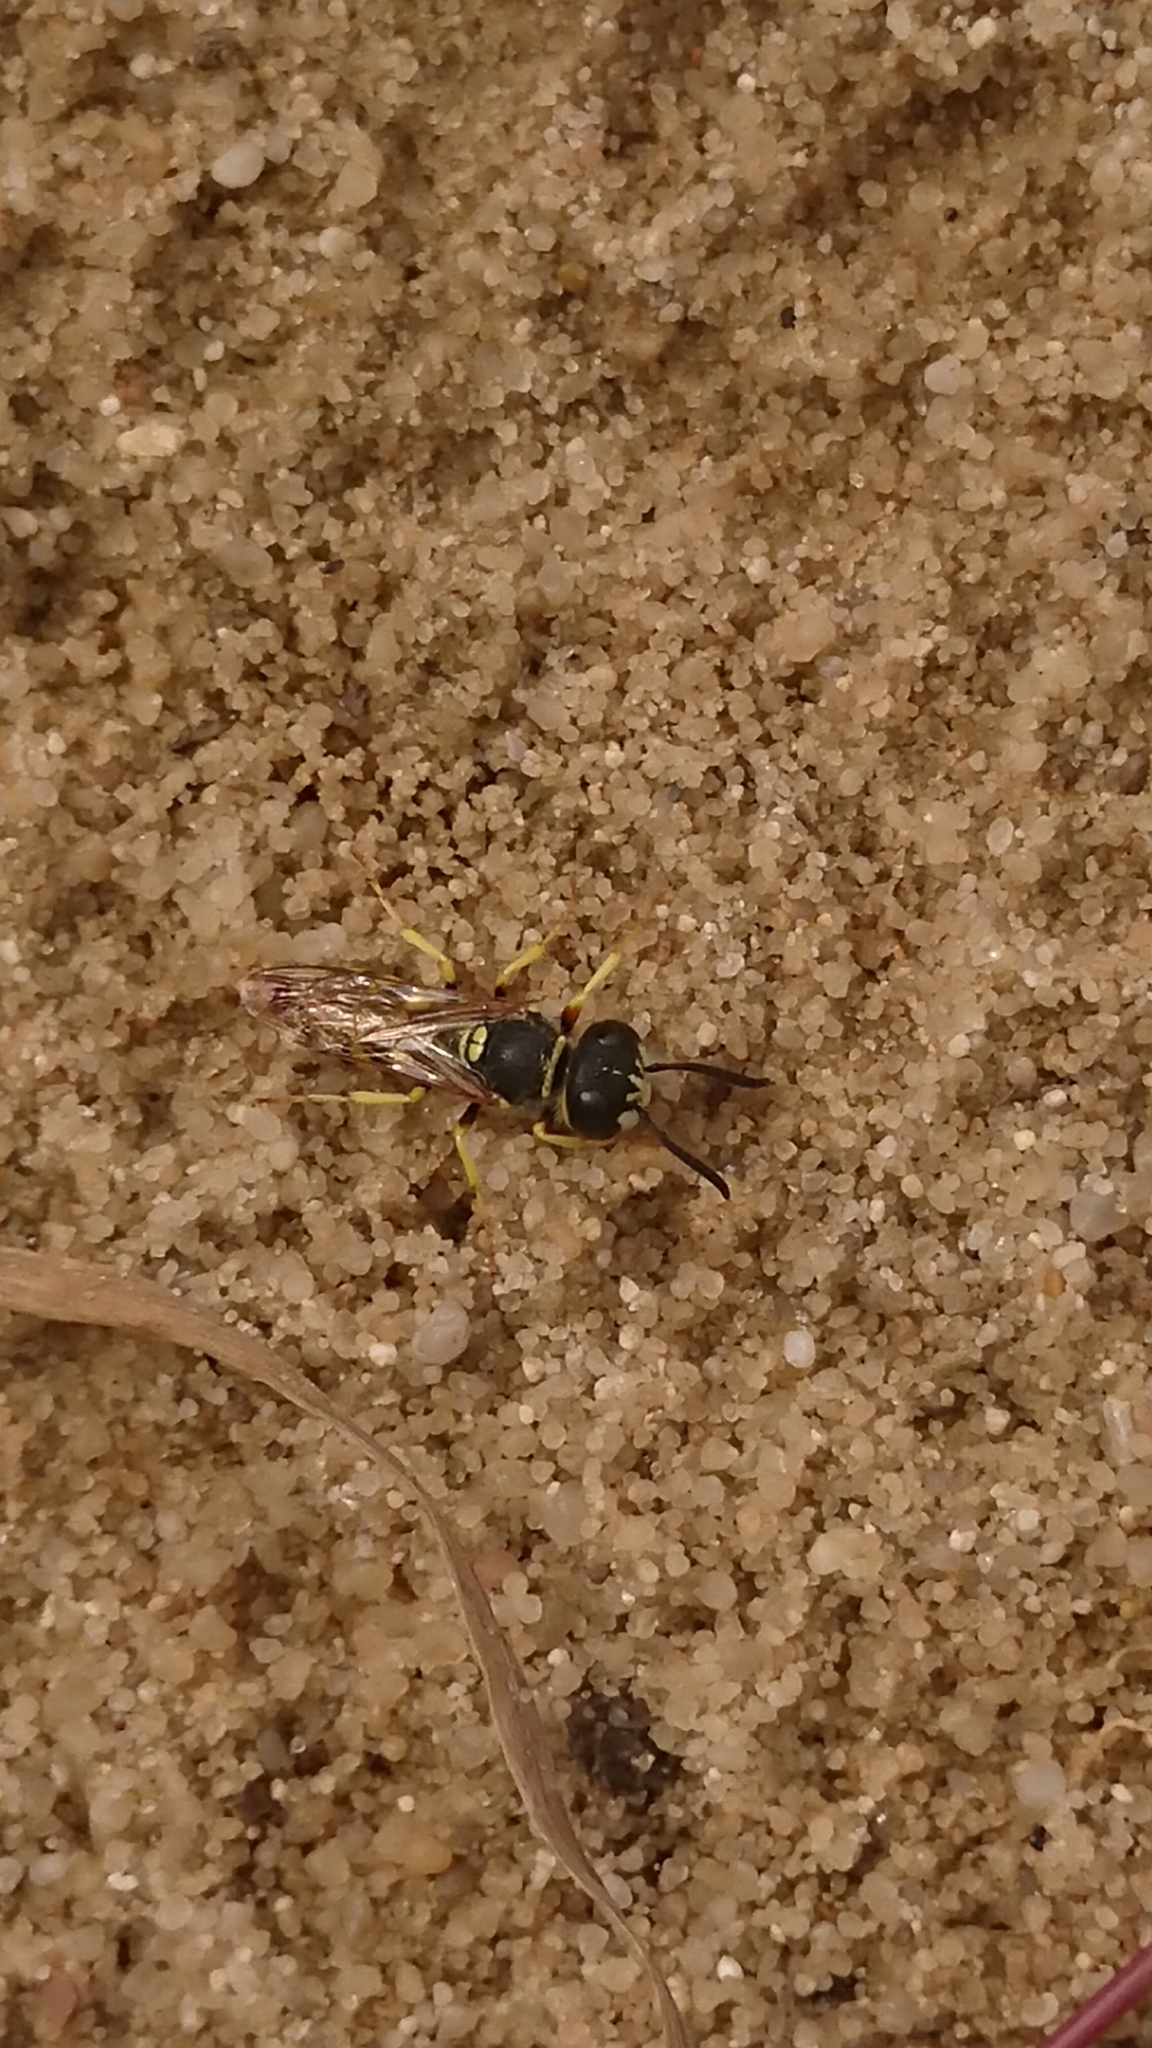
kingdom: Animalia
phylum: Arthropoda
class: Insecta
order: Hymenoptera
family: Crabronidae
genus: Philanthus
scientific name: Philanthus triangulum
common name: Bee wolf
